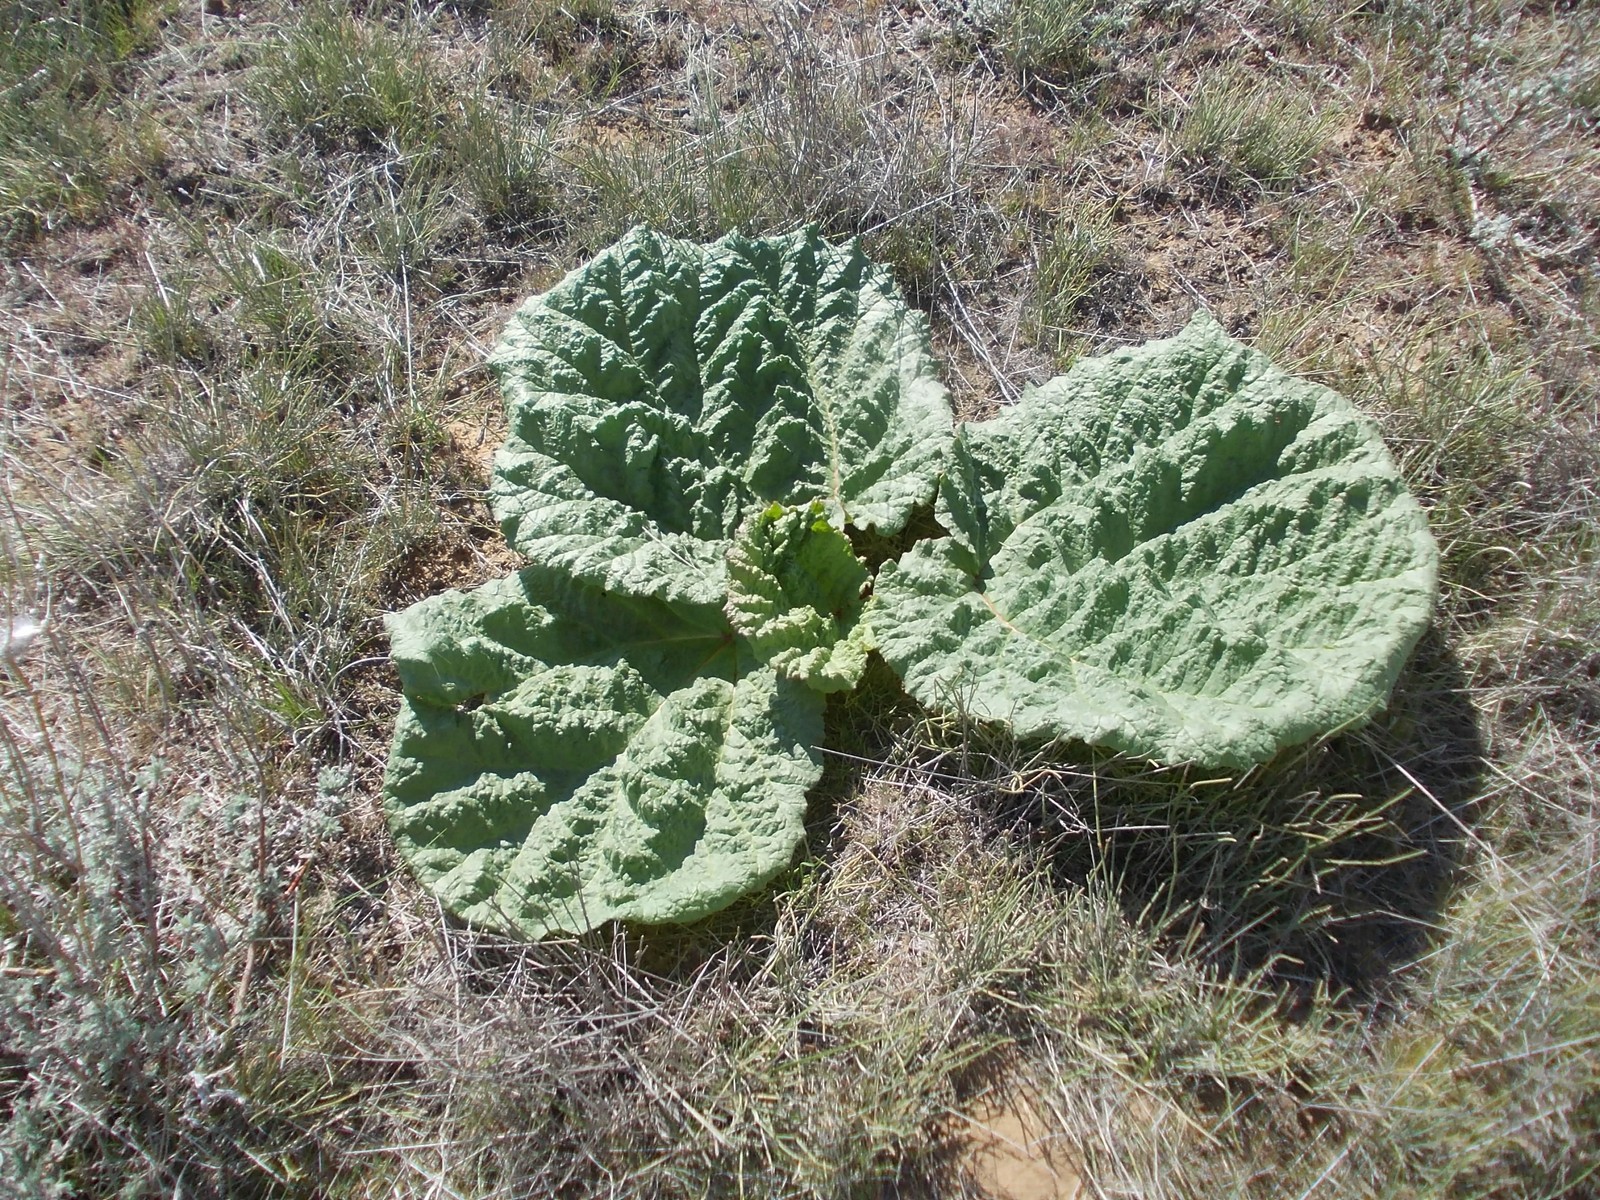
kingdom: Plantae
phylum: Tracheophyta
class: Magnoliopsida
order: Caryophyllales
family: Polygonaceae
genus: Rheum
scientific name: Rheum tataricum
